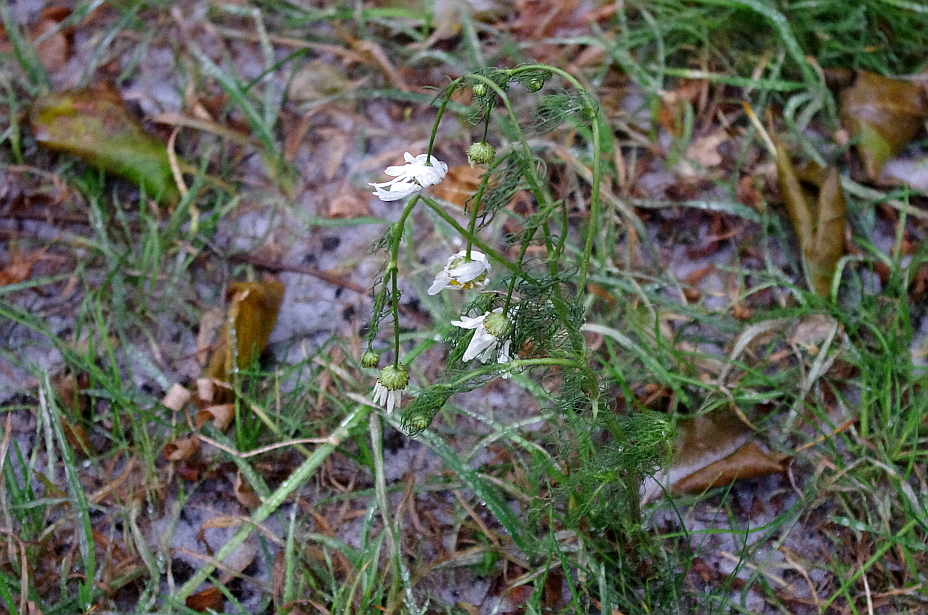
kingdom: Plantae
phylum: Tracheophyta
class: Magnoliopsida
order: Asterales
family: Asteraceae
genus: Tripleurospermum
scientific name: Tripleurospermum inodorum
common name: Scentless mayweed
